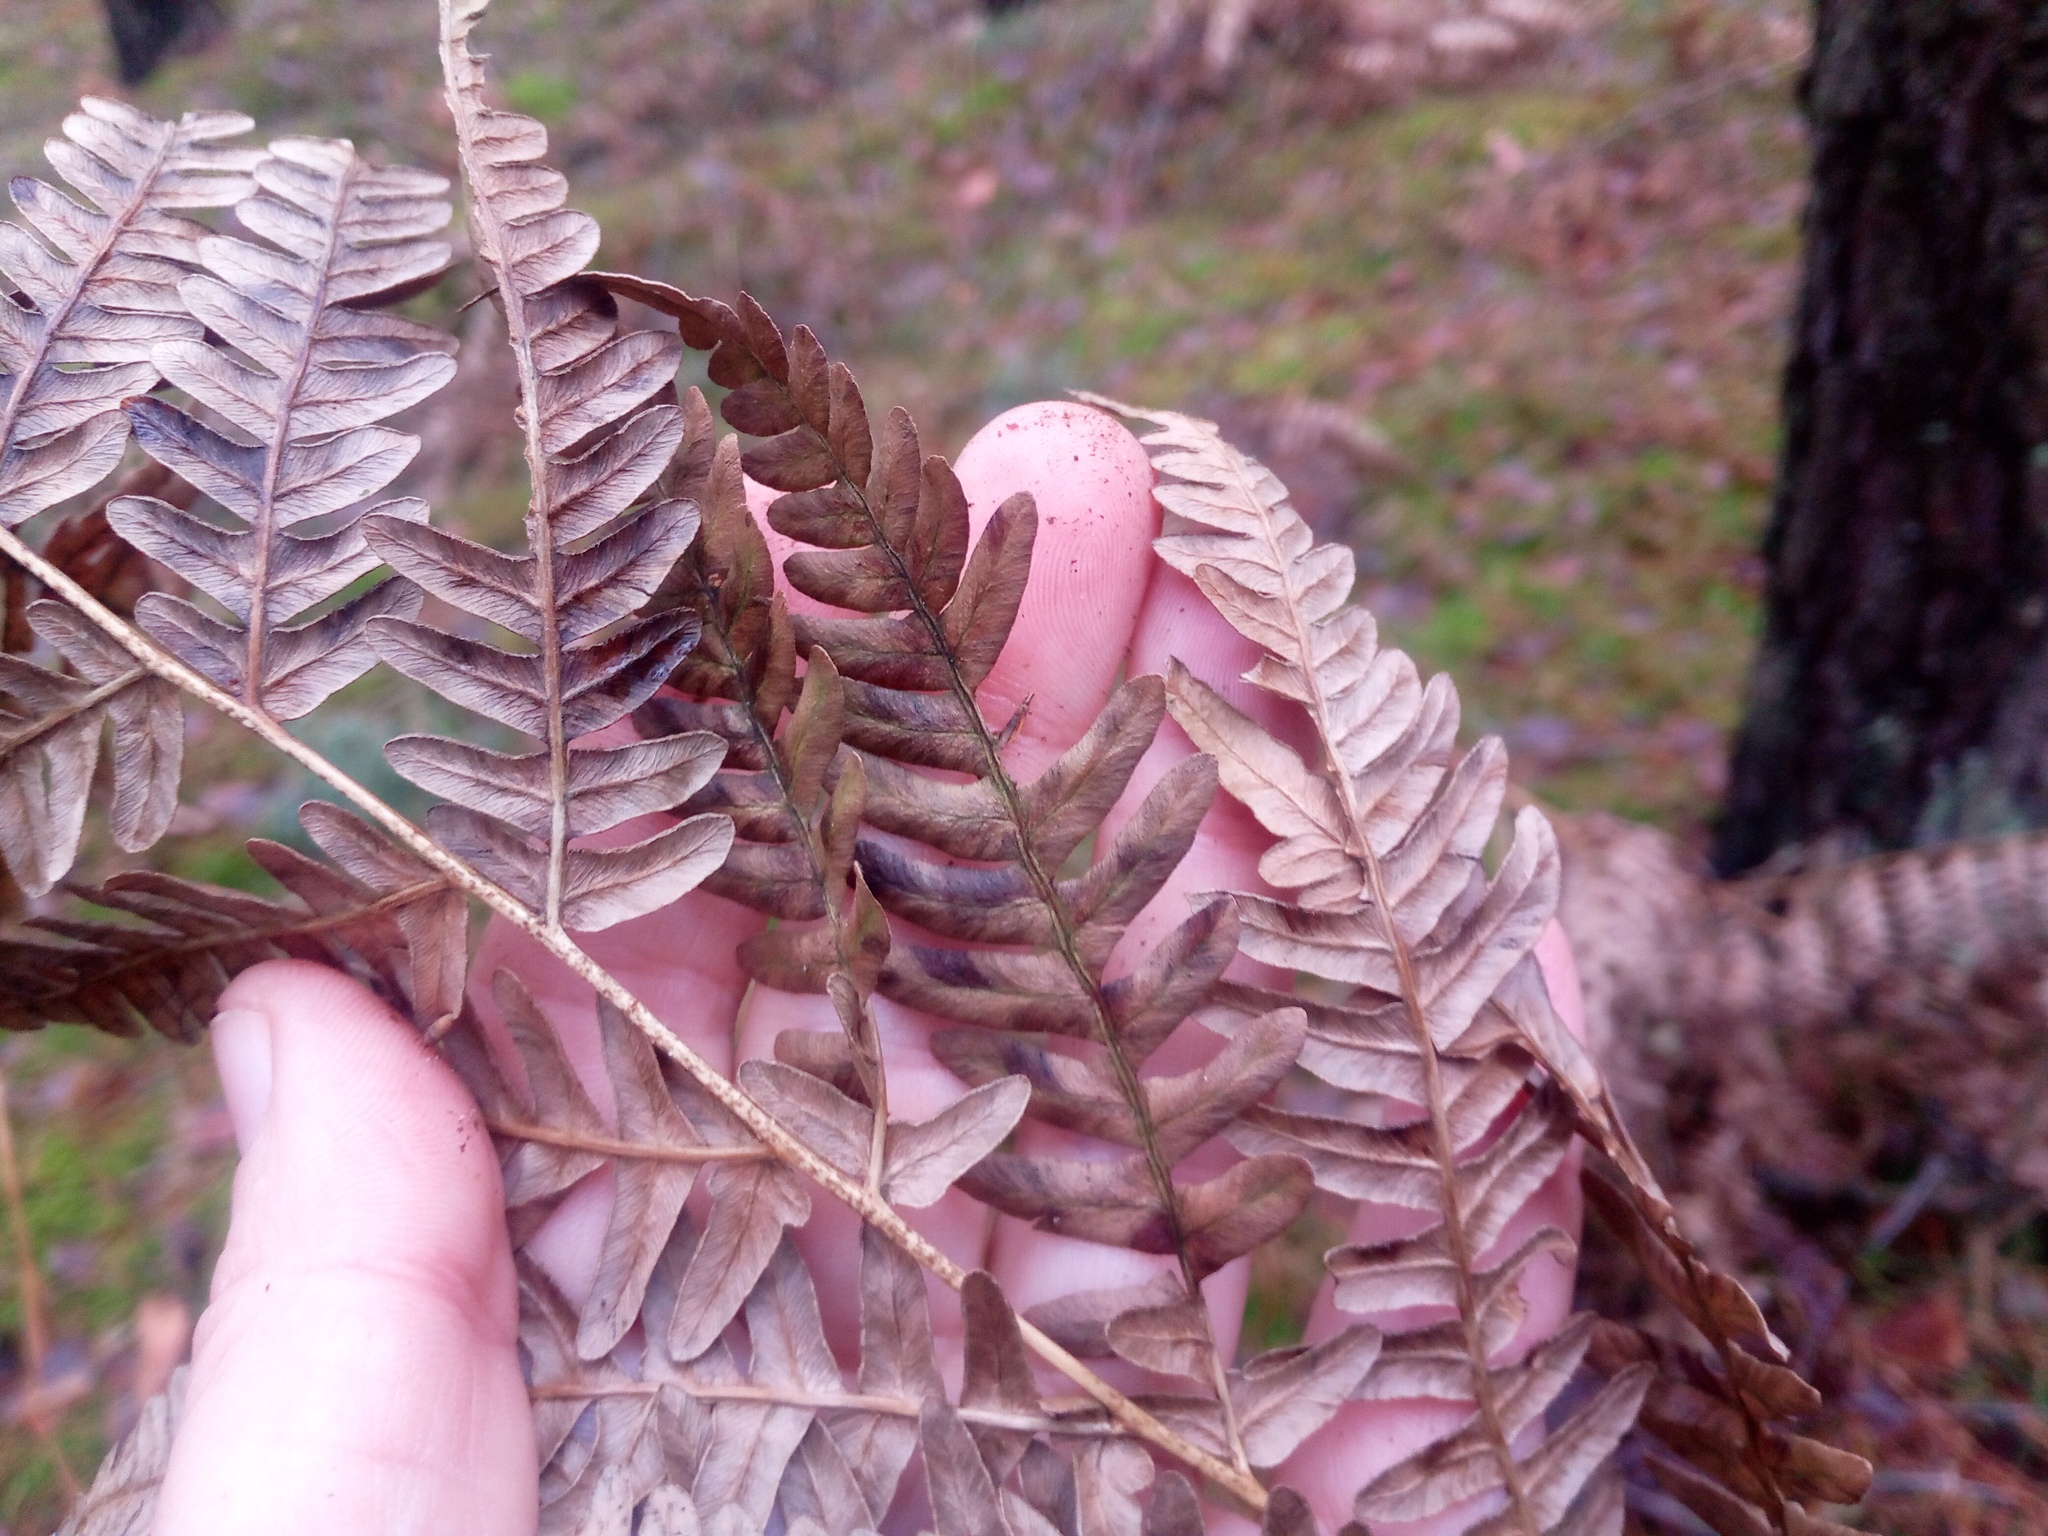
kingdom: Plantae
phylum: Tracheophyta
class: Polypodiopsida
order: Polypodiales
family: Dennstaedtiaceae
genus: Pteridium
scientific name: Pteridium aquilinum
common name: Bracken
